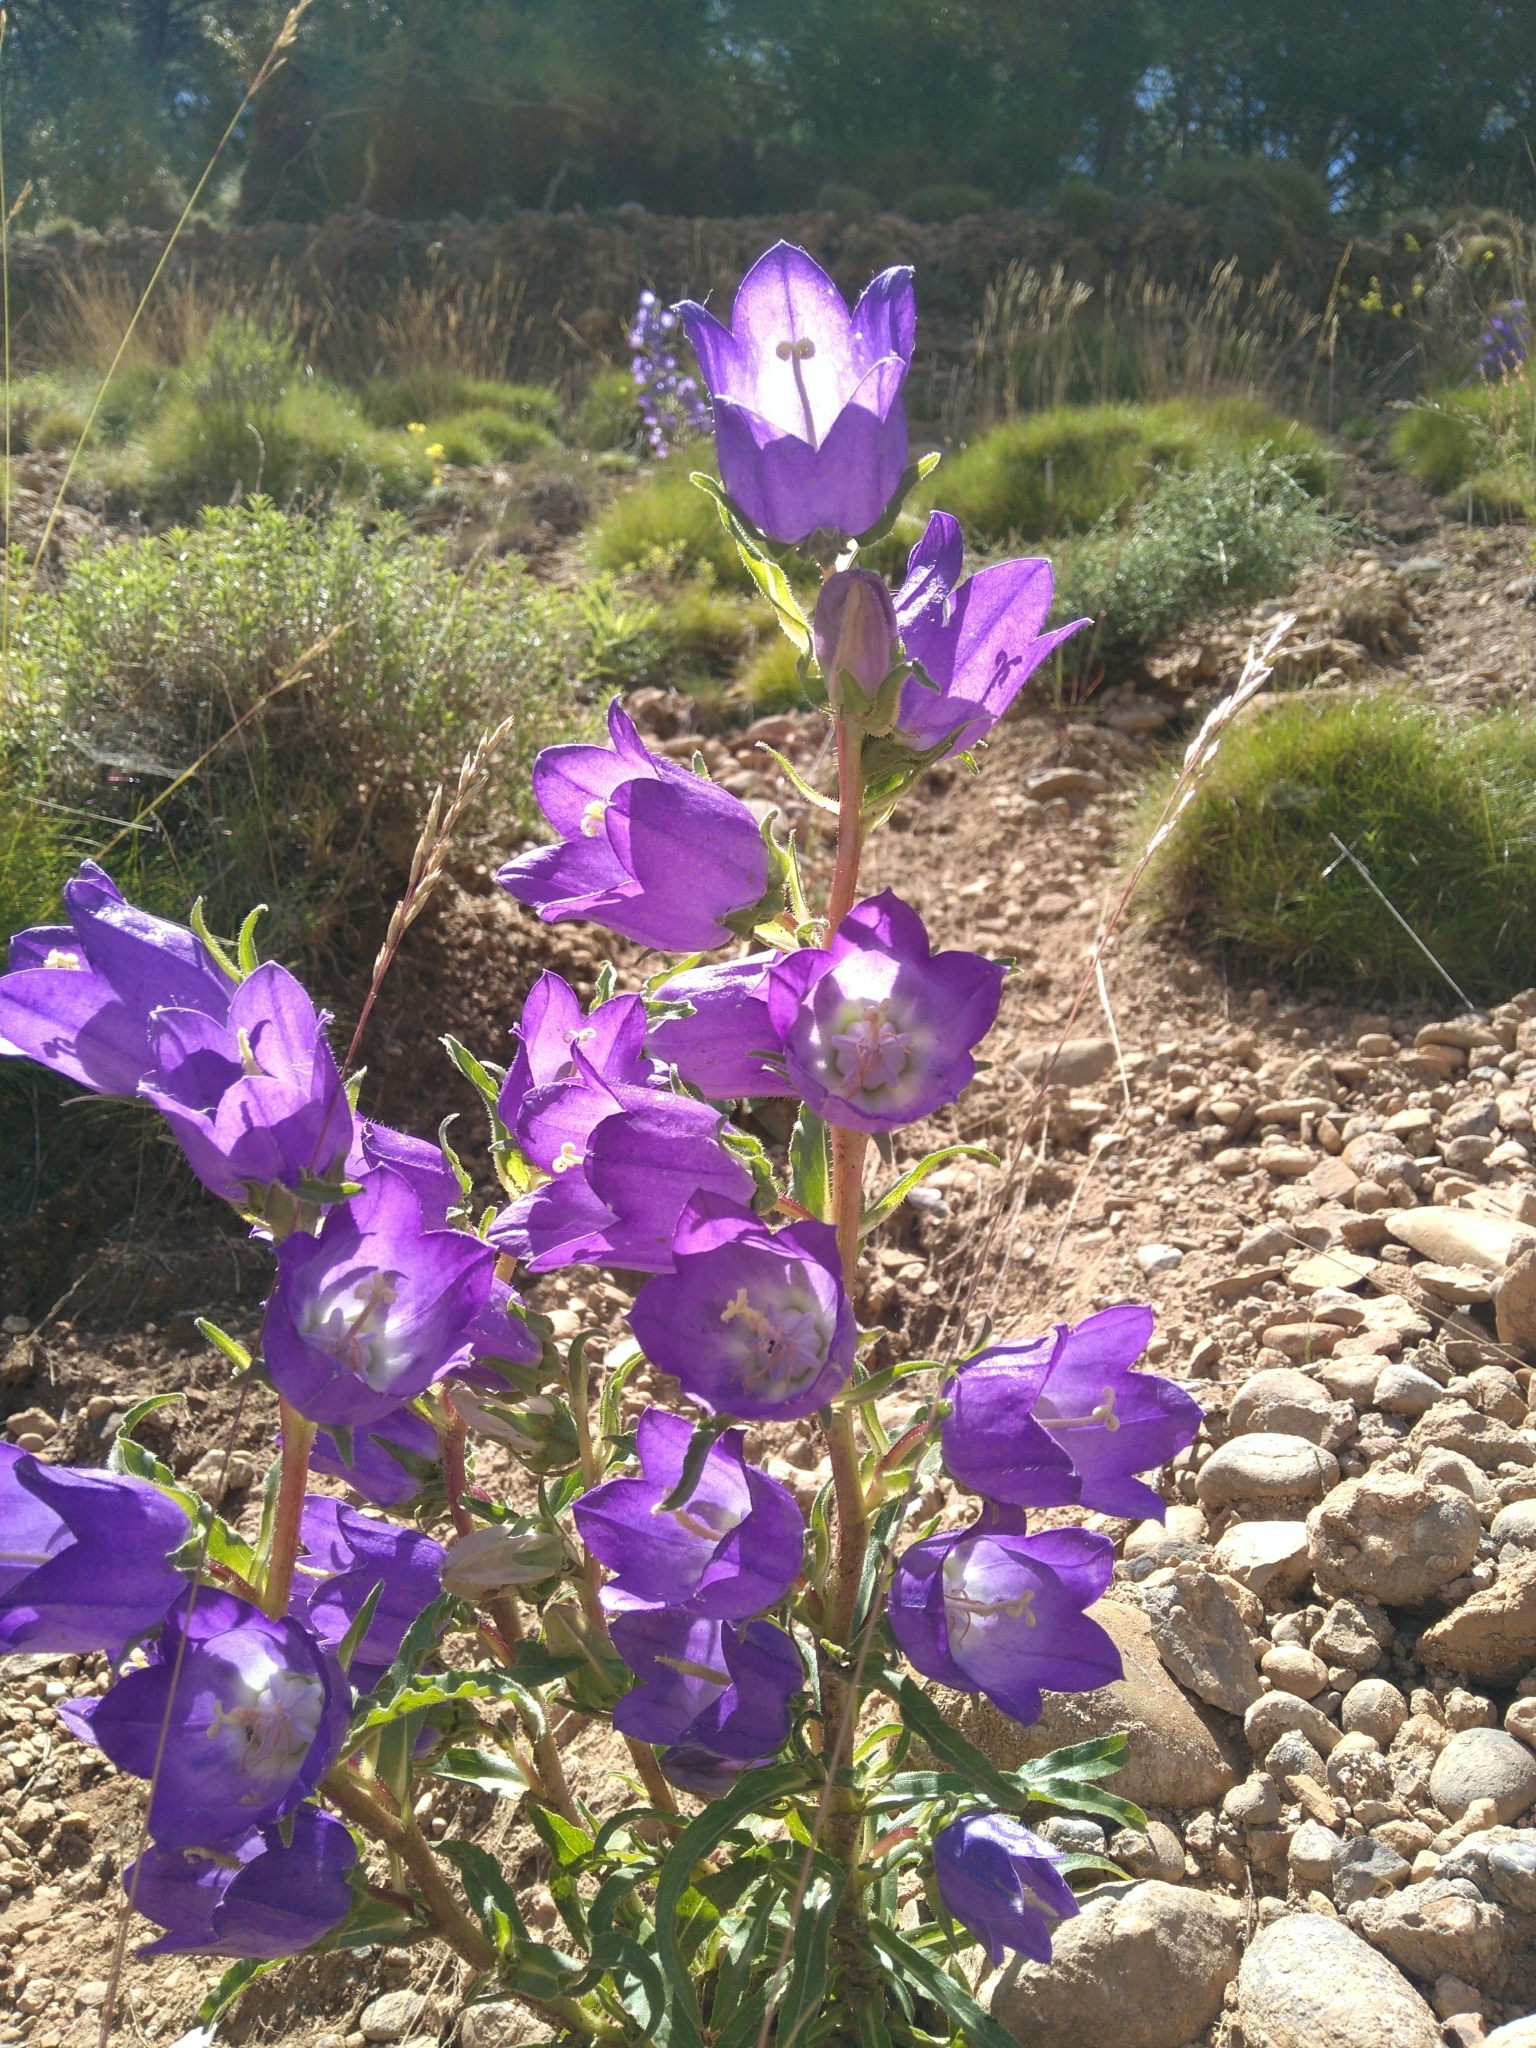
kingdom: Plantae
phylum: Tracheophyta
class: Magnoliopsida
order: Asterales
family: Campanulaceae
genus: Campanula
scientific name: Campanula speciosa
